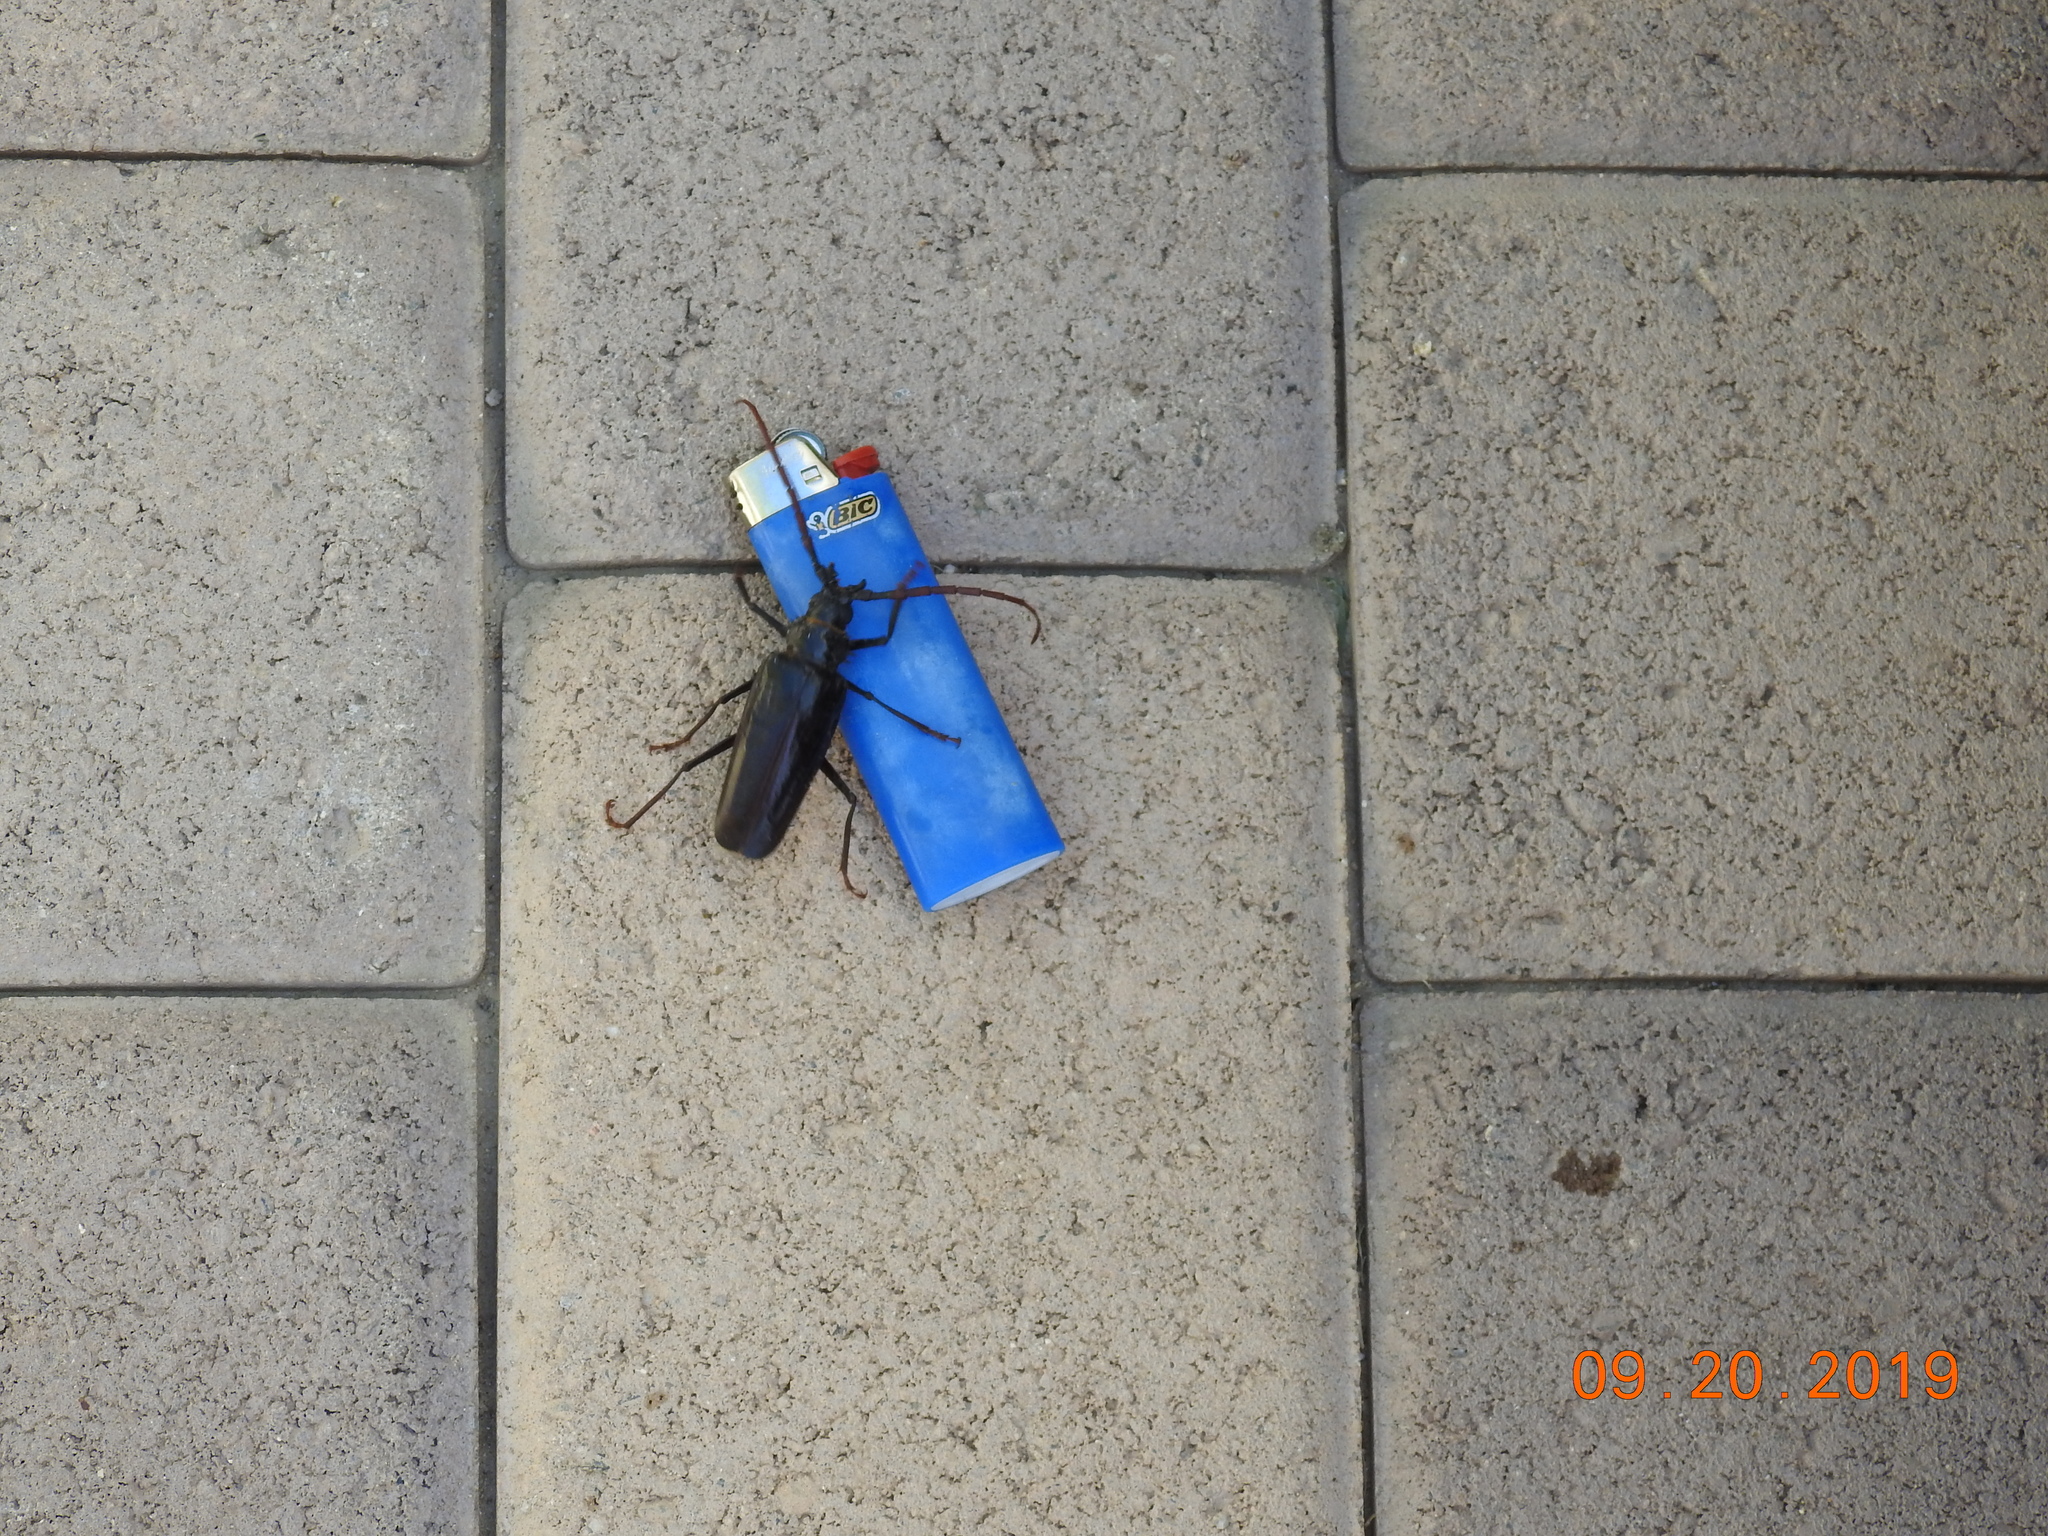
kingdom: Animalia
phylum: Arthropoda
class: Insecta
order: Coleoptera
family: Cerambycidae
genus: Derobrachus
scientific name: Derobrachus leechi
